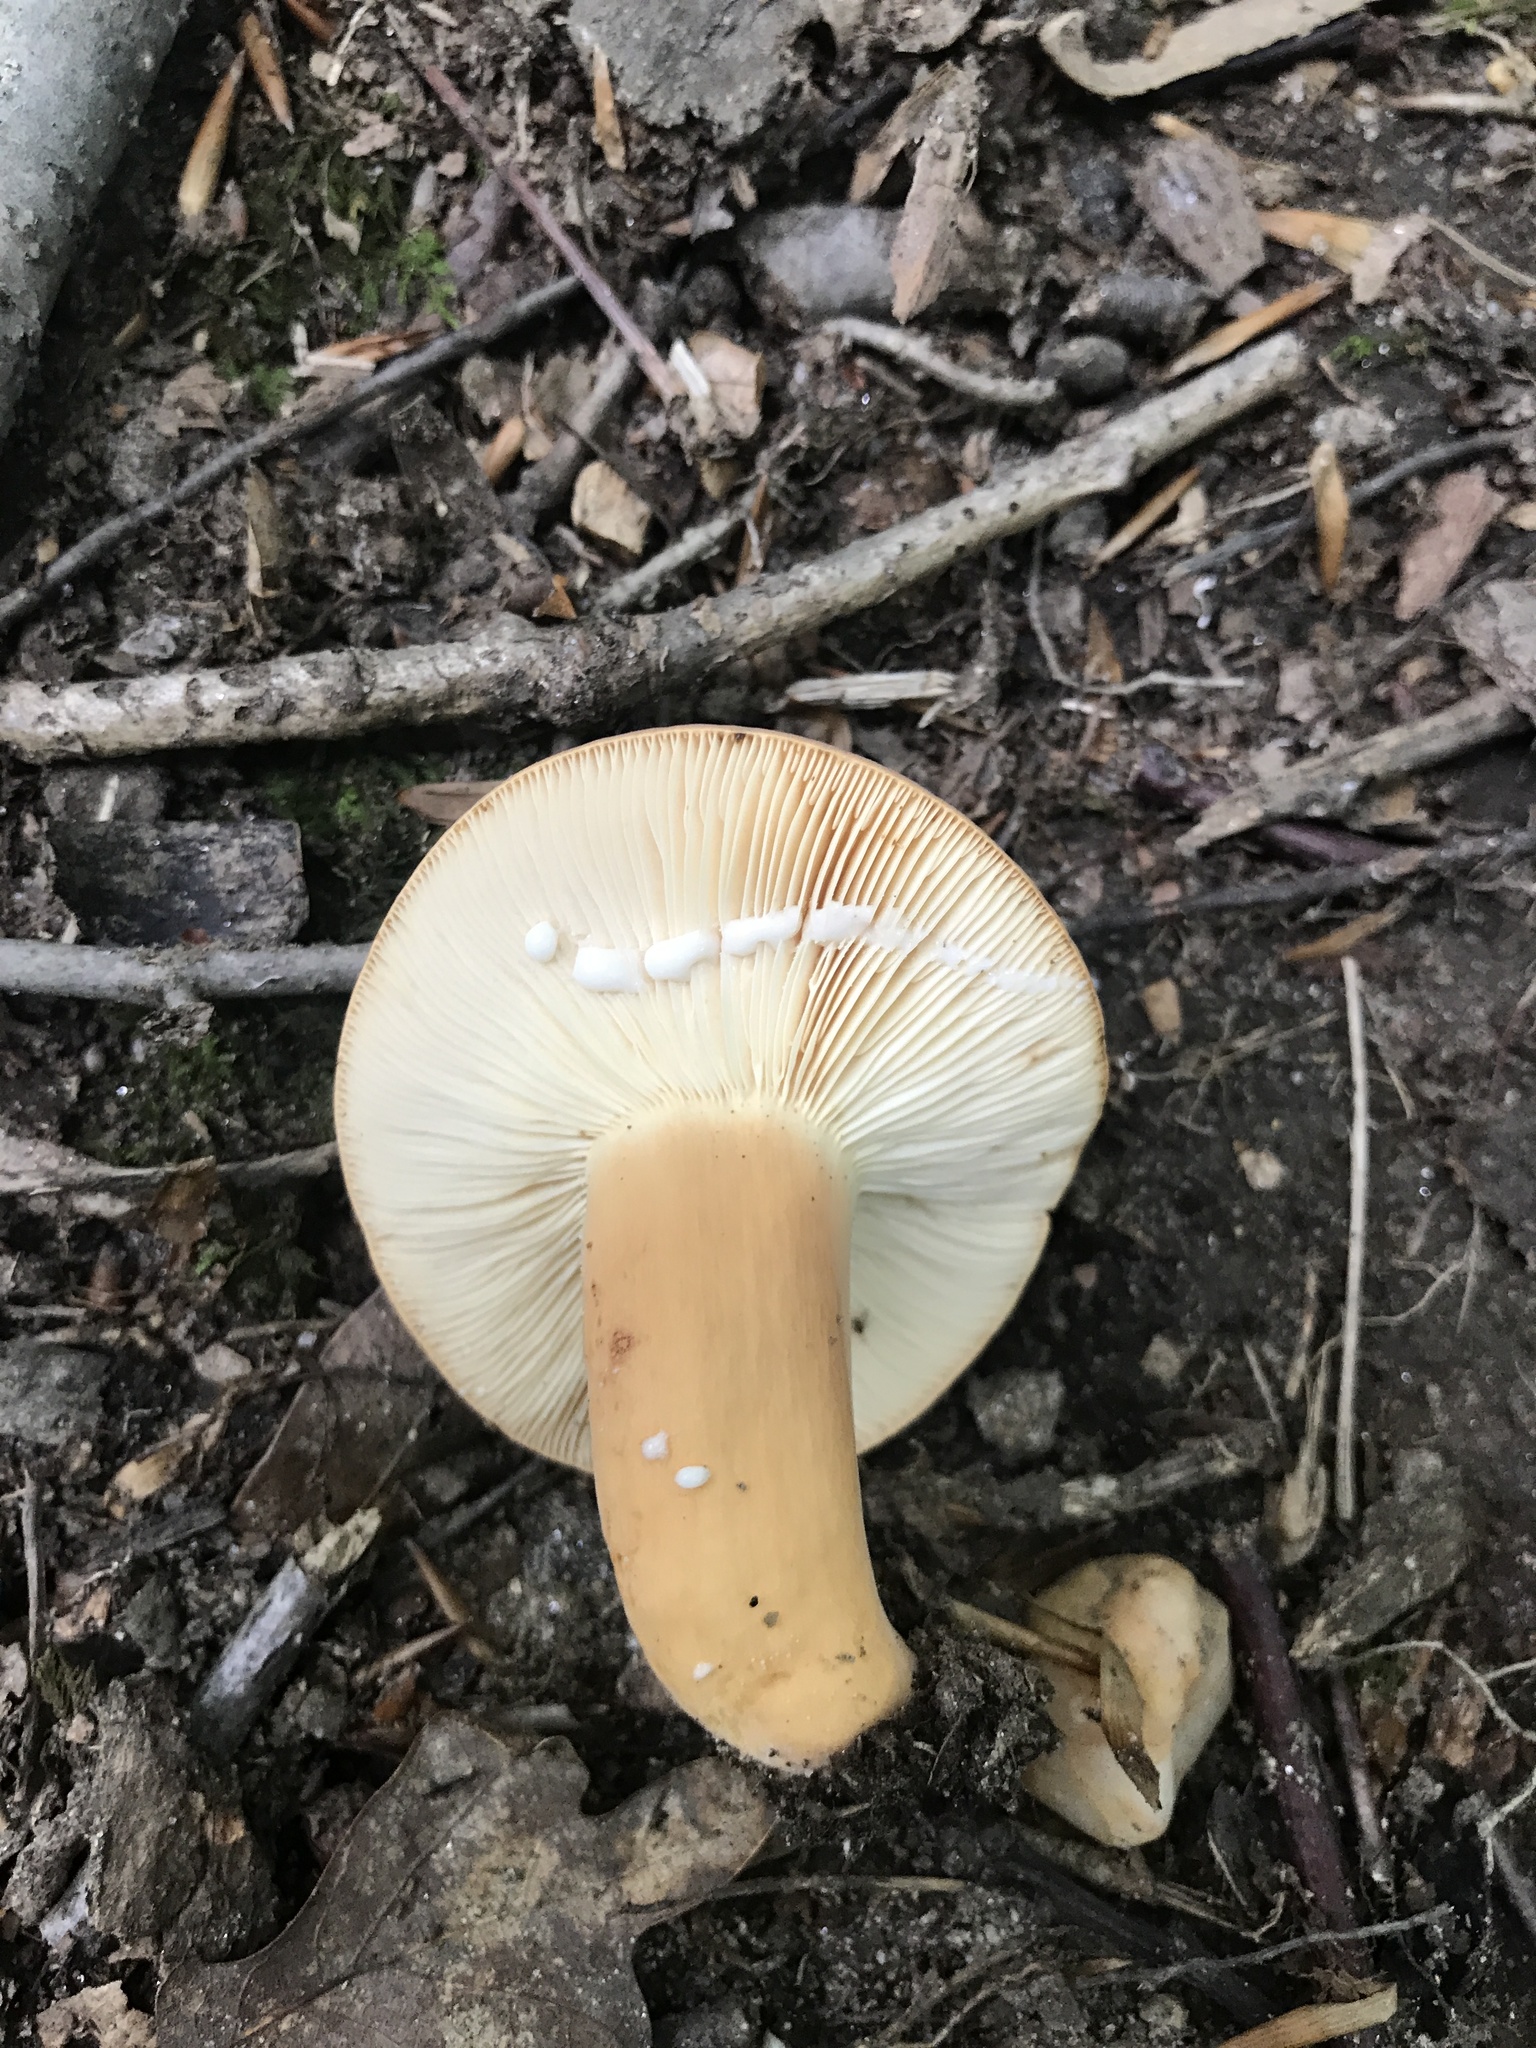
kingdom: Fungi
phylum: Basidiomycota
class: Agaricomycetes
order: Russulales
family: Russulaceae
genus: Lactifluus
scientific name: Lactifluus volemus
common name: Fishy milkcap
